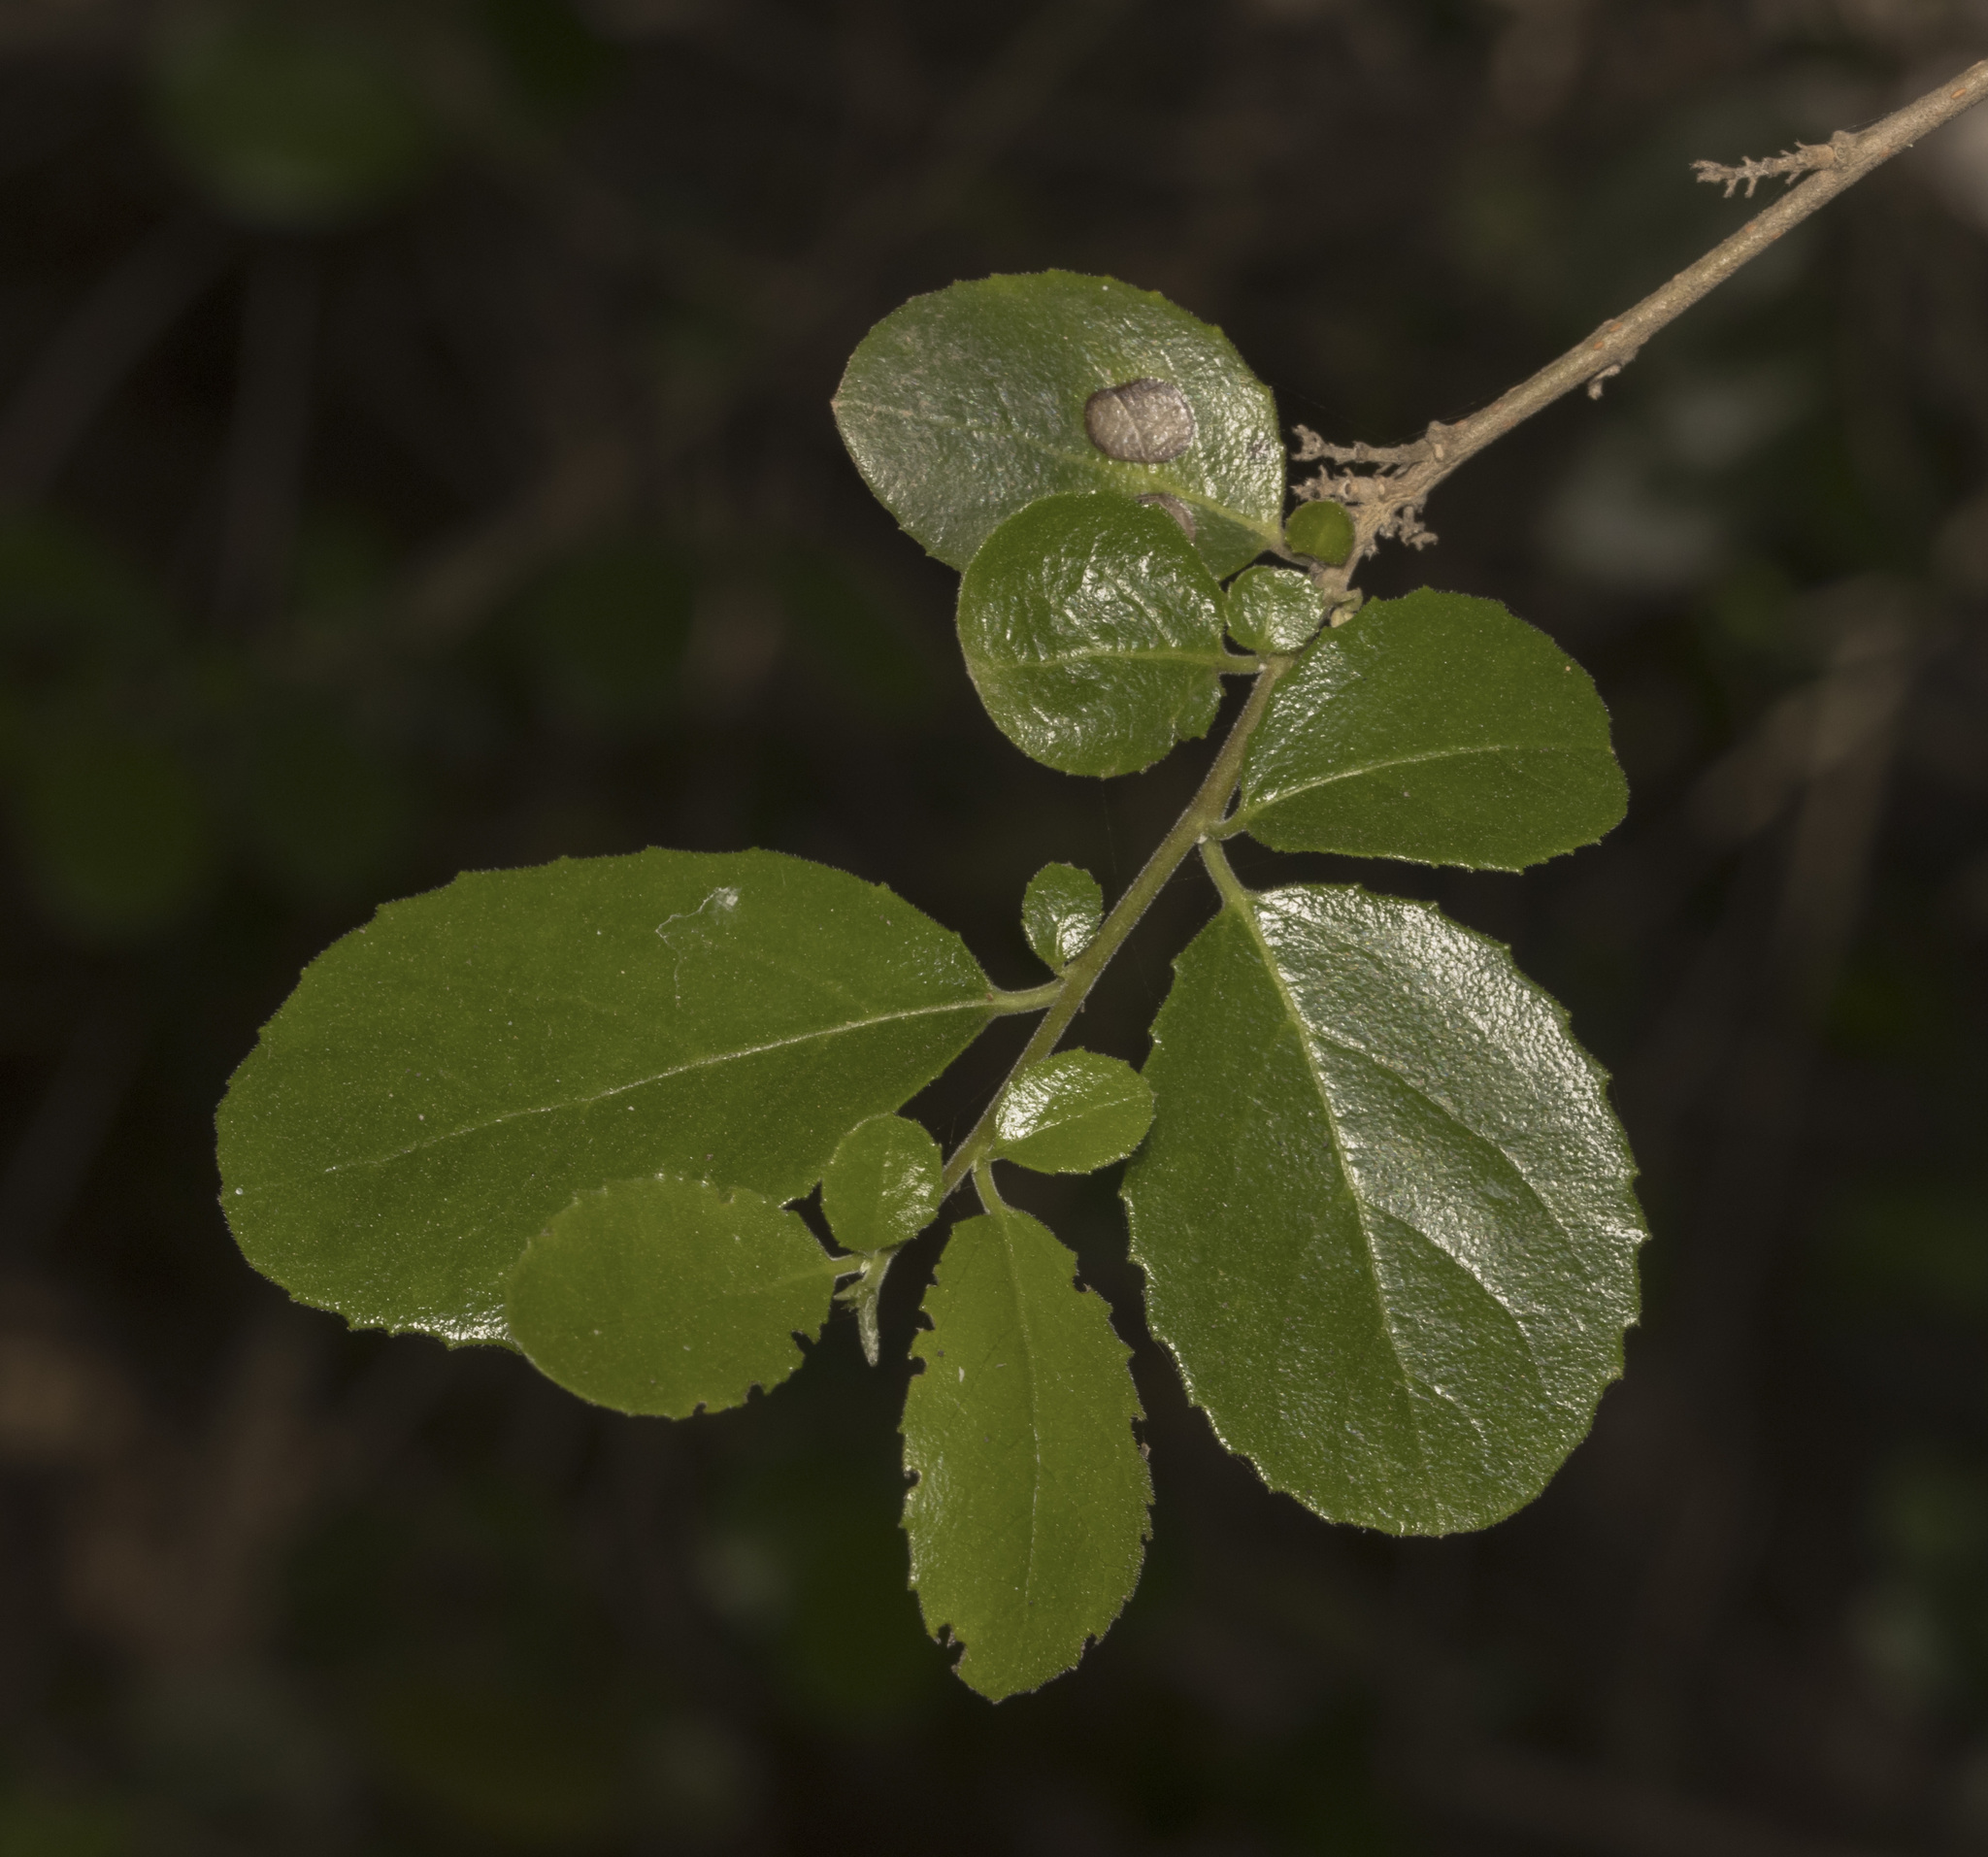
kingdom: Plantae
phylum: Tracheophyta
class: Magnoliopsida
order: Malpighiales
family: Salicaceae
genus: Azara
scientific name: Azara dentata
